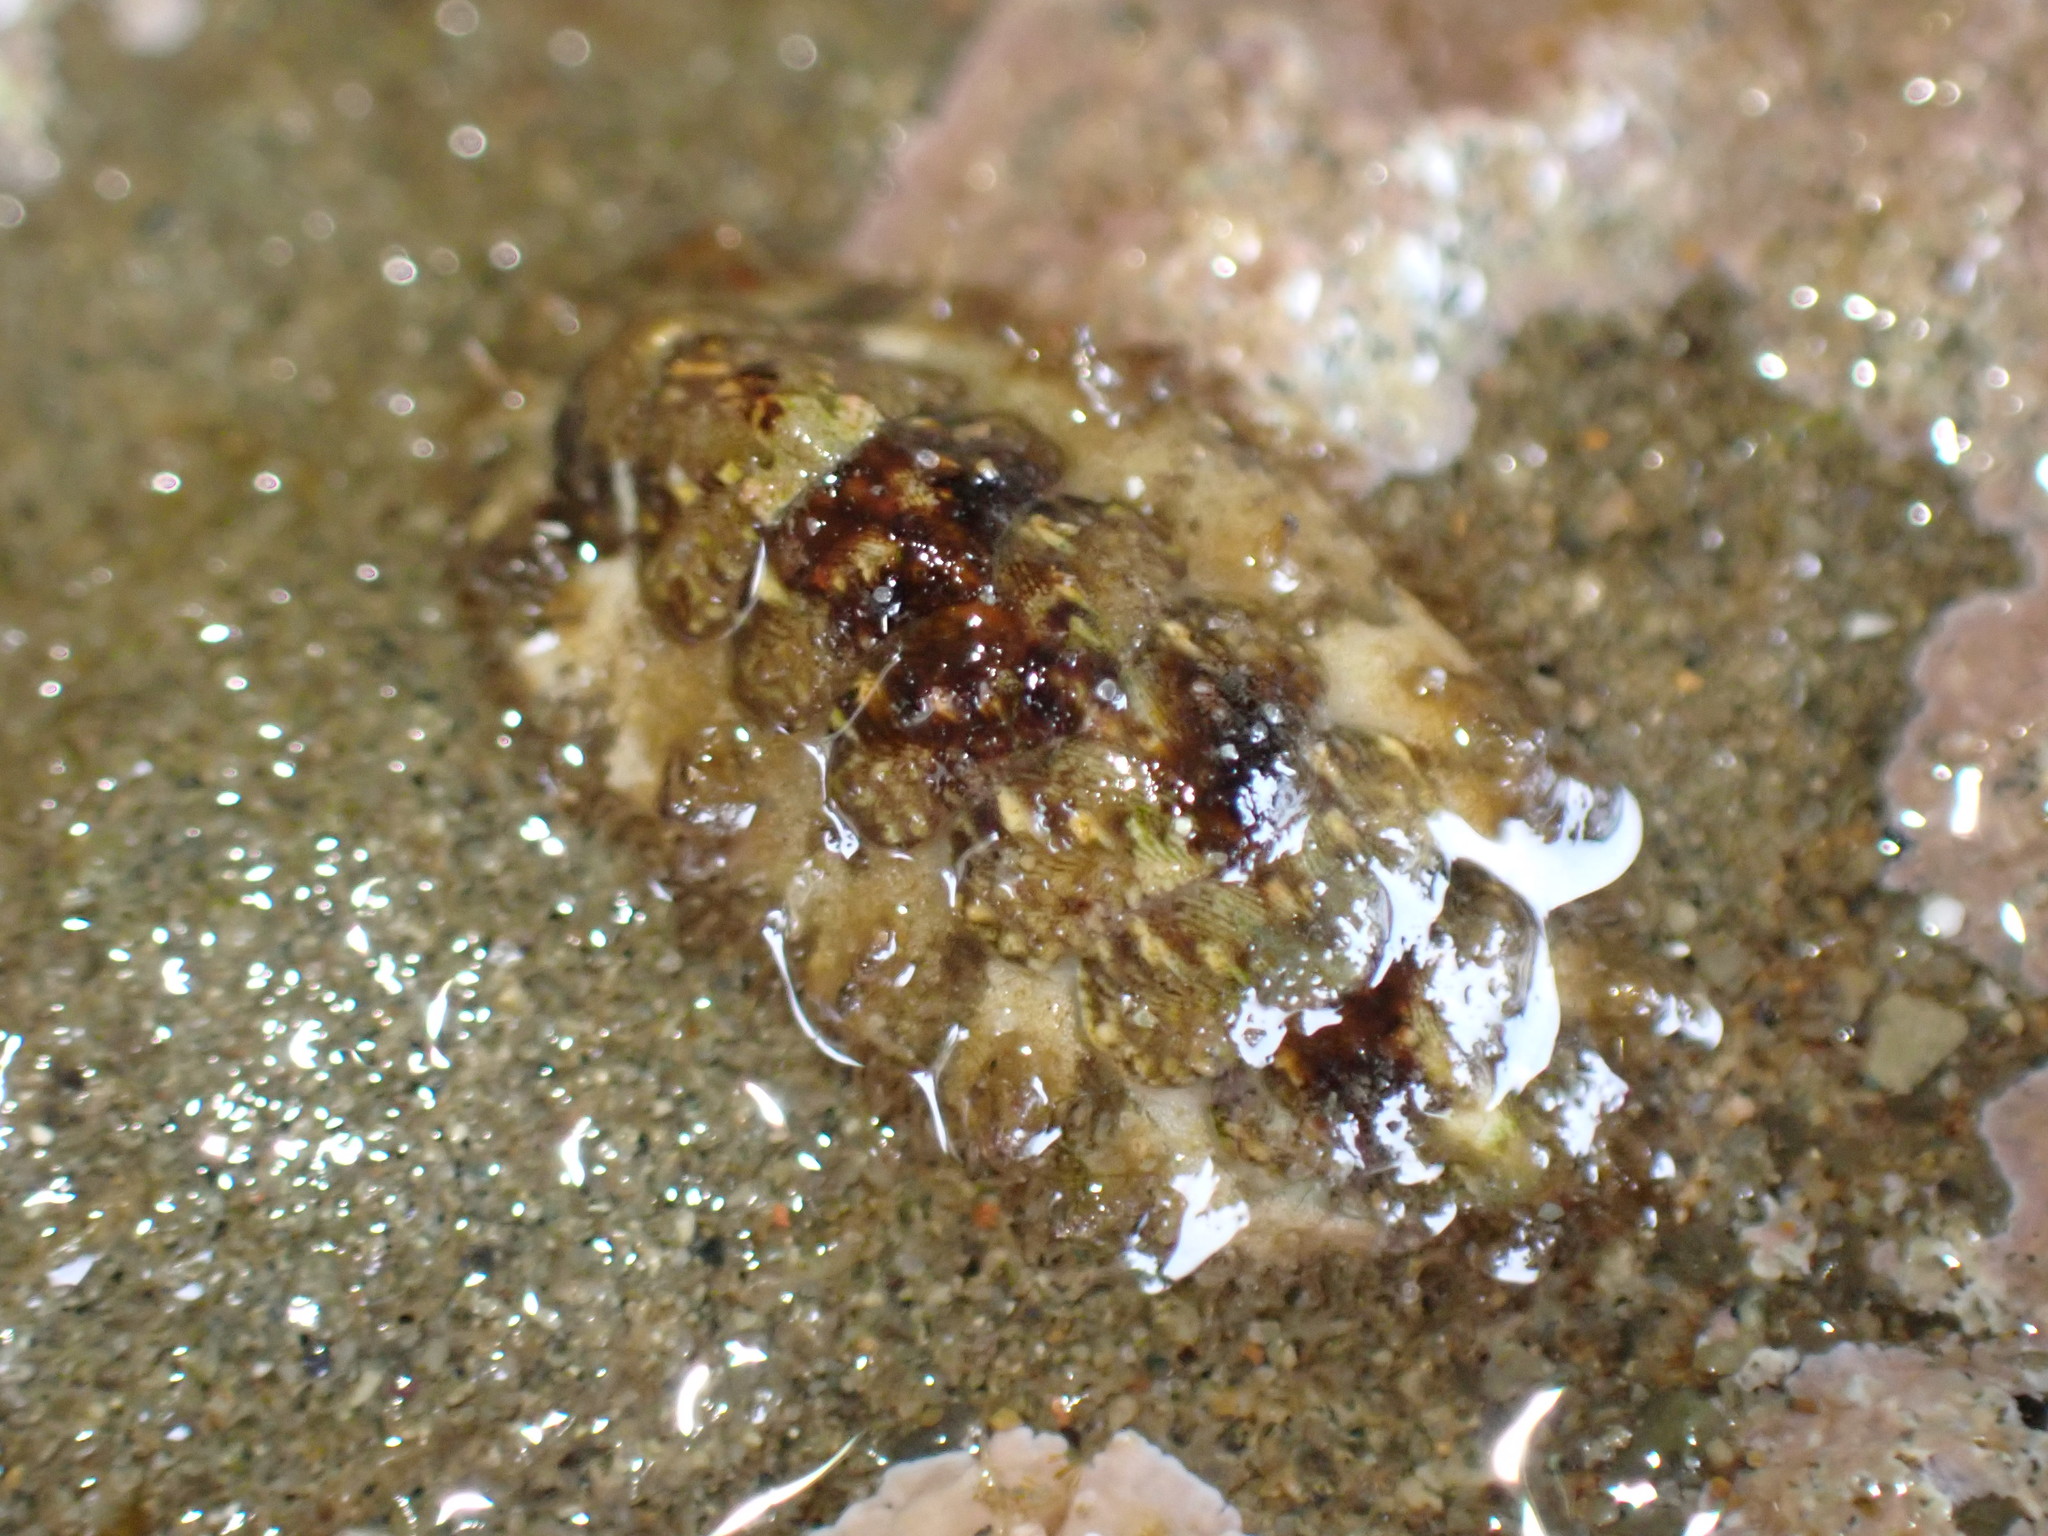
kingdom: Animalia
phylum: Mollusca
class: Polyplacophora
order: Chitonida
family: Mopaliidae
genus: Plaxiphora
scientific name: Plaxiphora caelata
